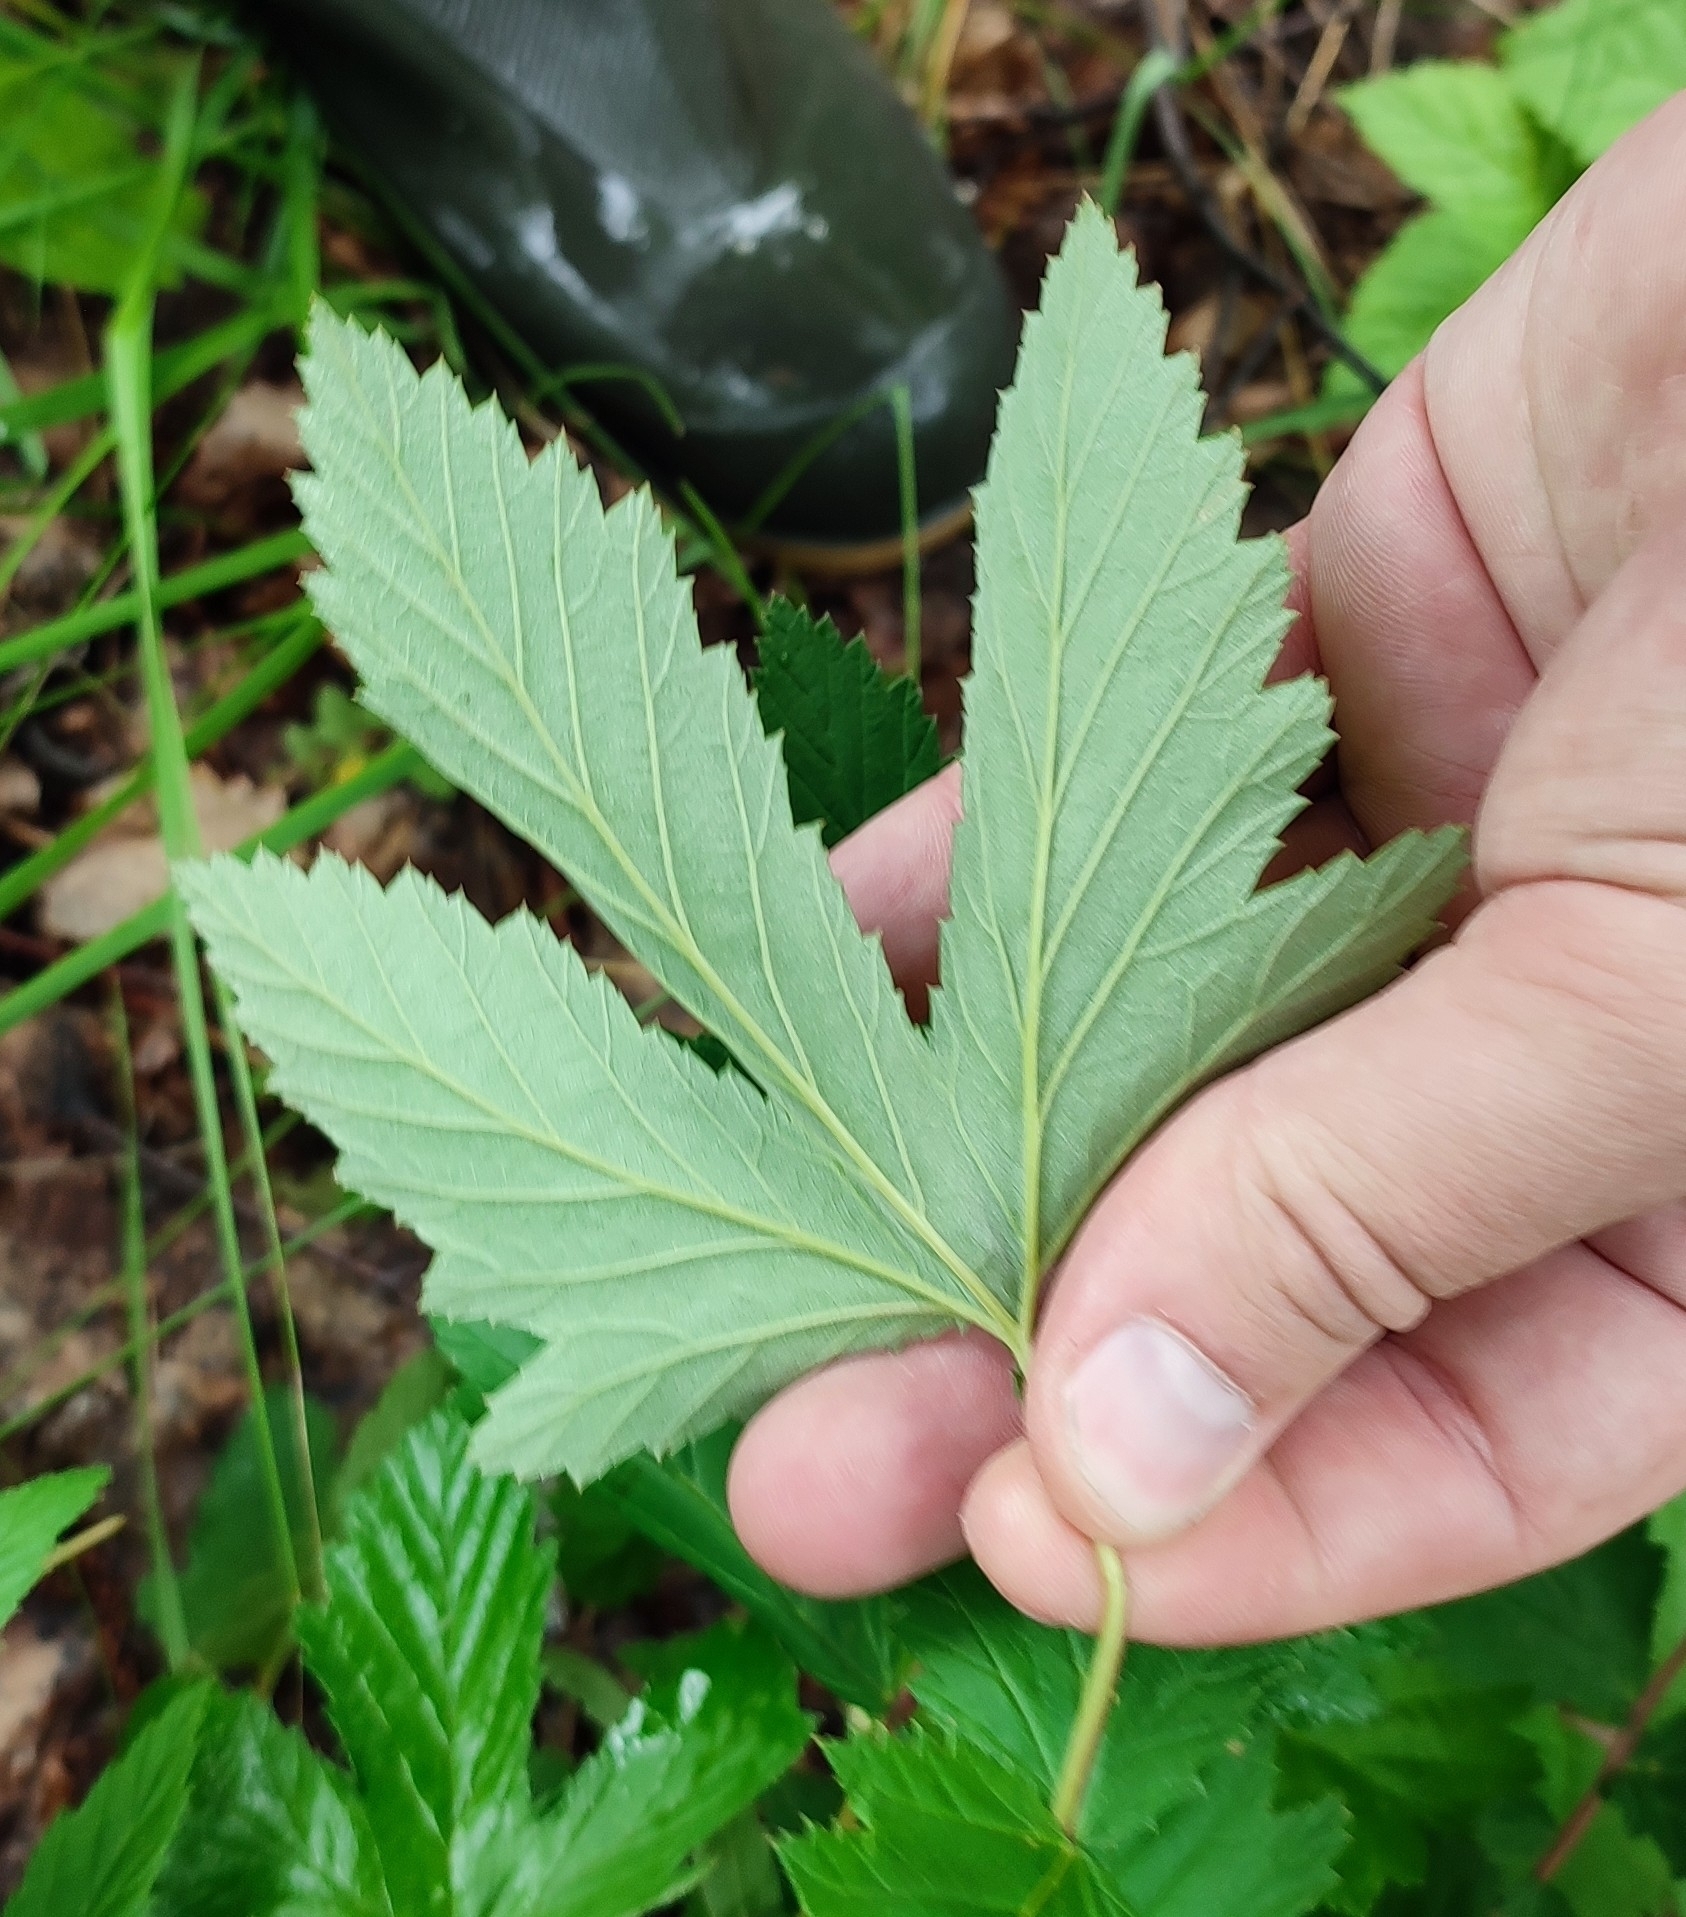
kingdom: Plantae
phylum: Tracheophyta
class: Magnoliopsida
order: Rosales
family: Rosaceae
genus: Filipendula
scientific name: Filipendula ulmaria
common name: Meadowsweet
